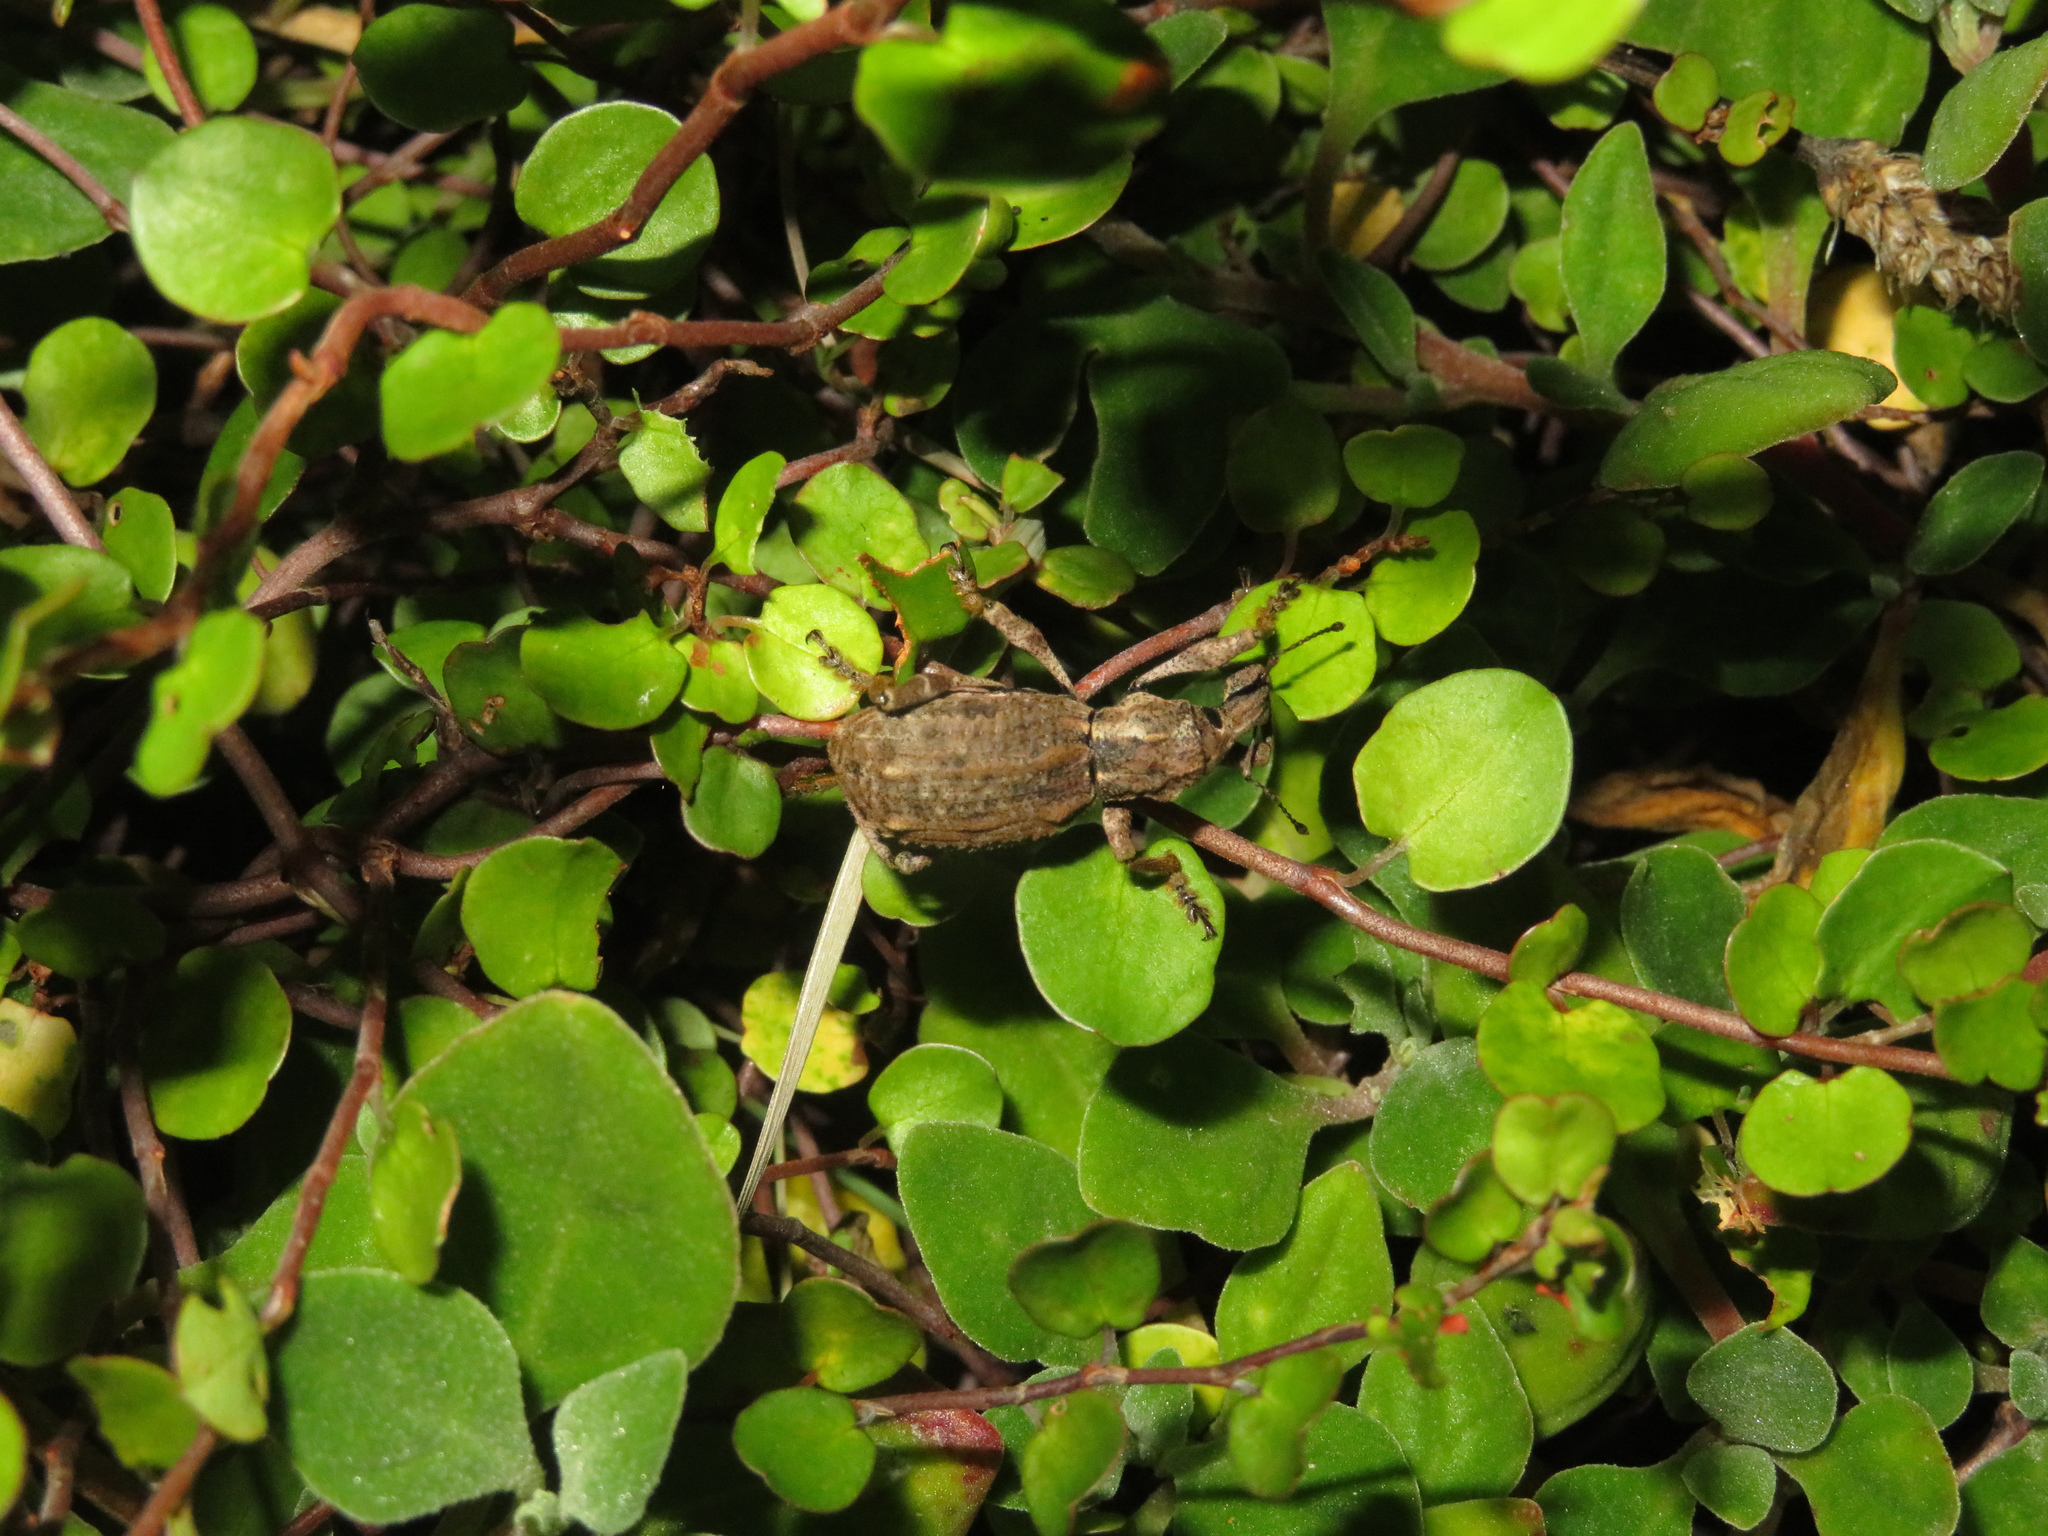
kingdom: Animalia
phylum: Arthropoda
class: Insecta
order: Coleoptera
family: Curculionidae
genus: Anagotus
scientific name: Anagotus fairburni
